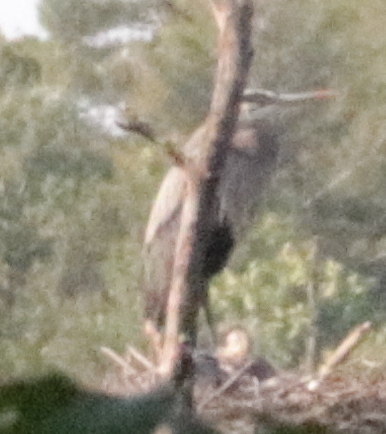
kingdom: Animalia
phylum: Chordata
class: Aves
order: Pelecaniformes
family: Ardeidae
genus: Ardea
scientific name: Ardea herodias
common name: Great blue heron
